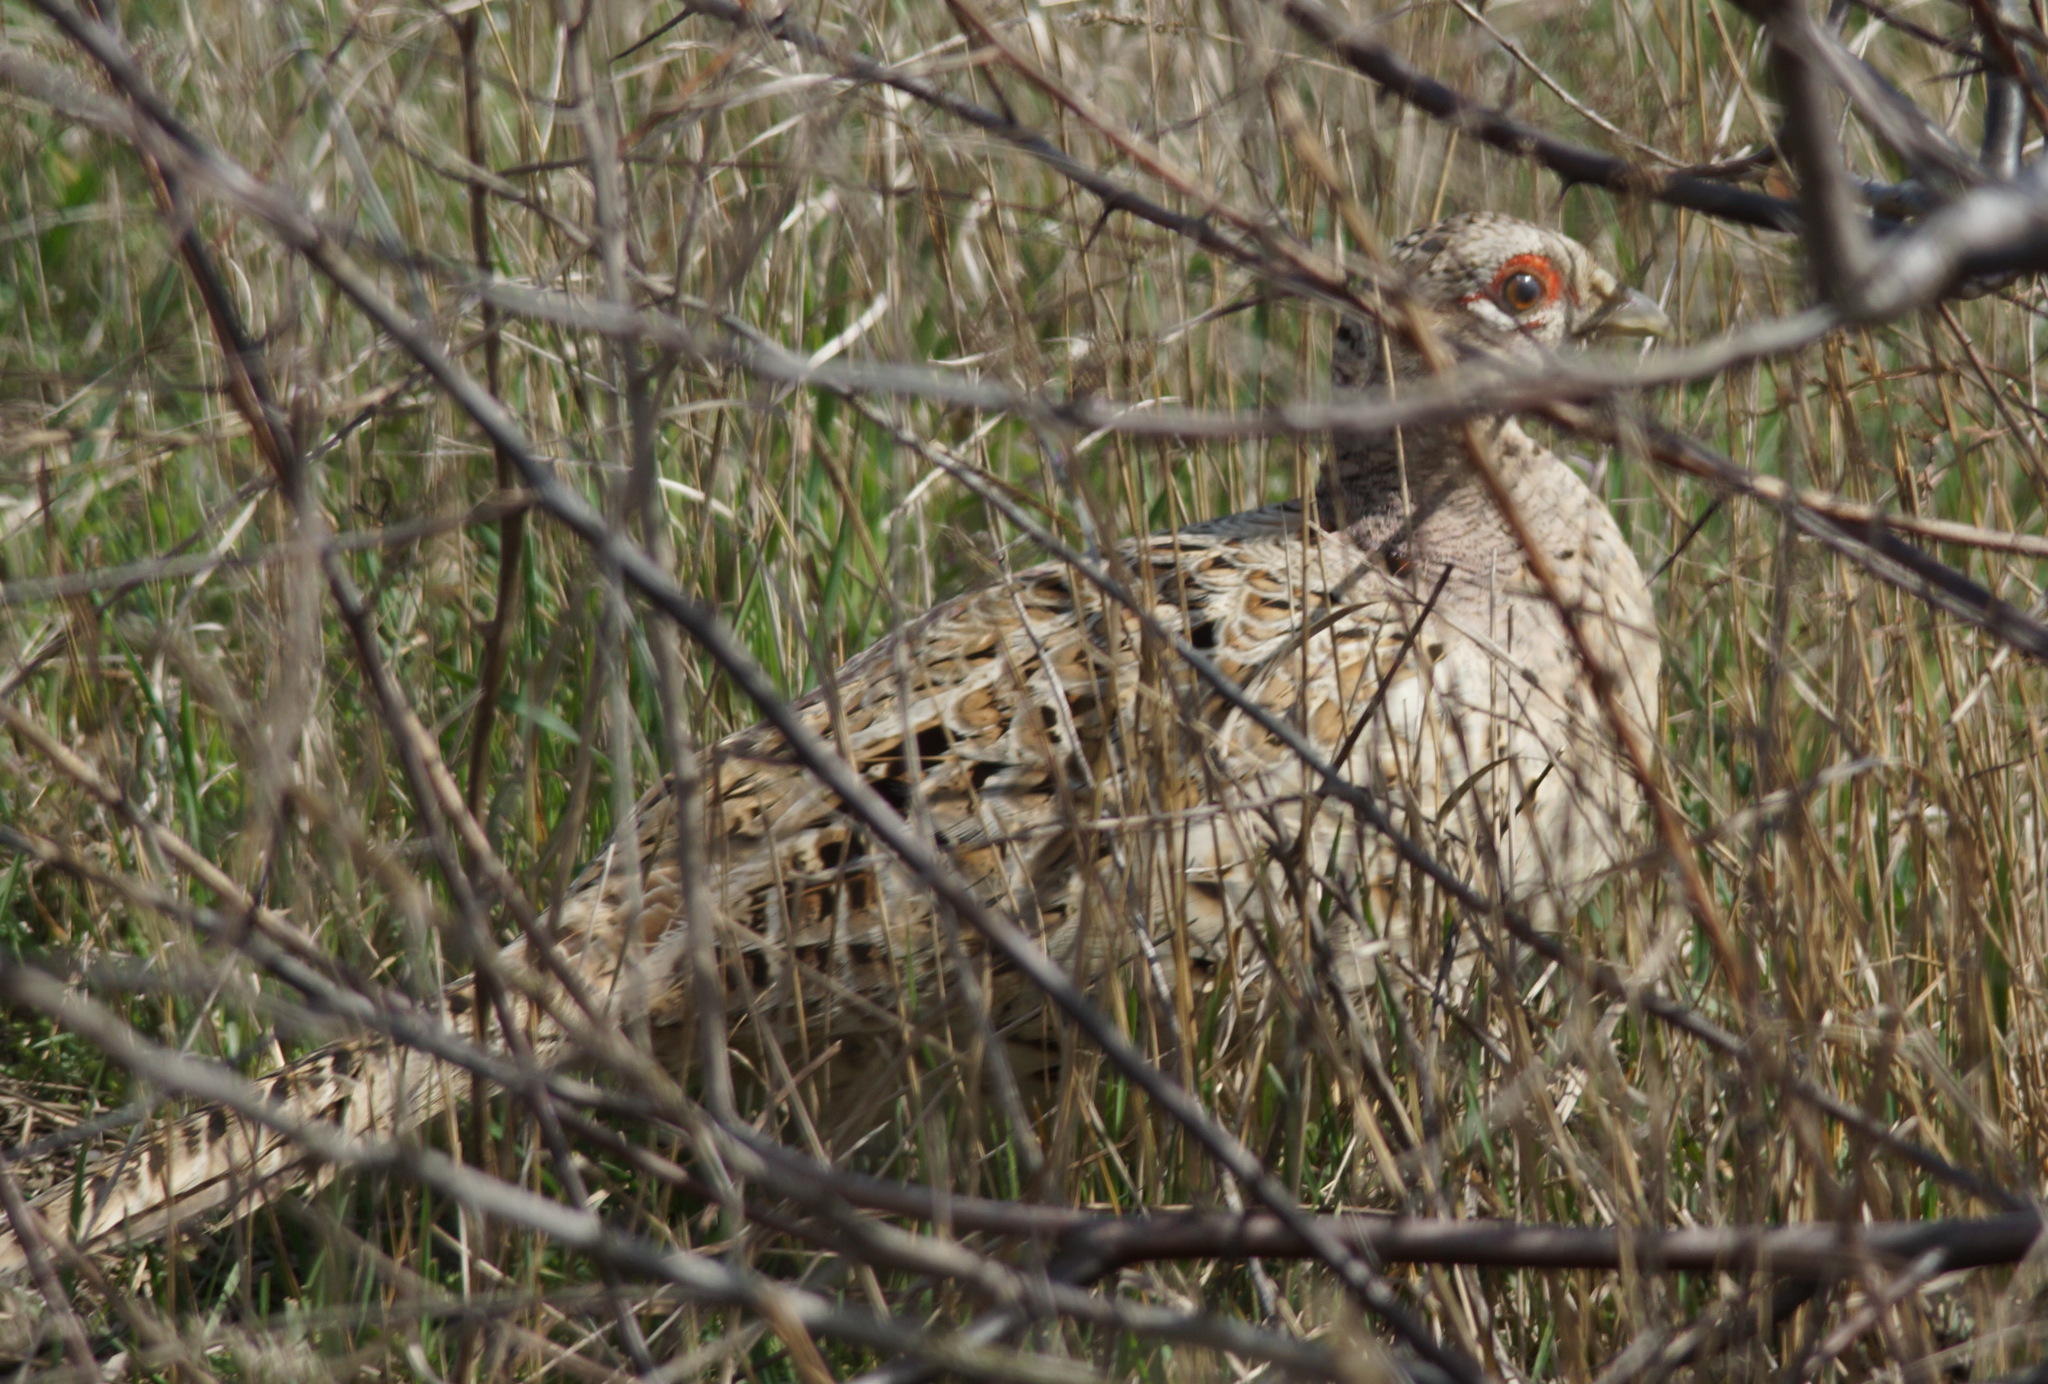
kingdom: Animalia
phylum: Chordata
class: Aves
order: Galliformes
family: Phasianidae
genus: Phasianus
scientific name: Phasianus colchicus
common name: Common pheasant
